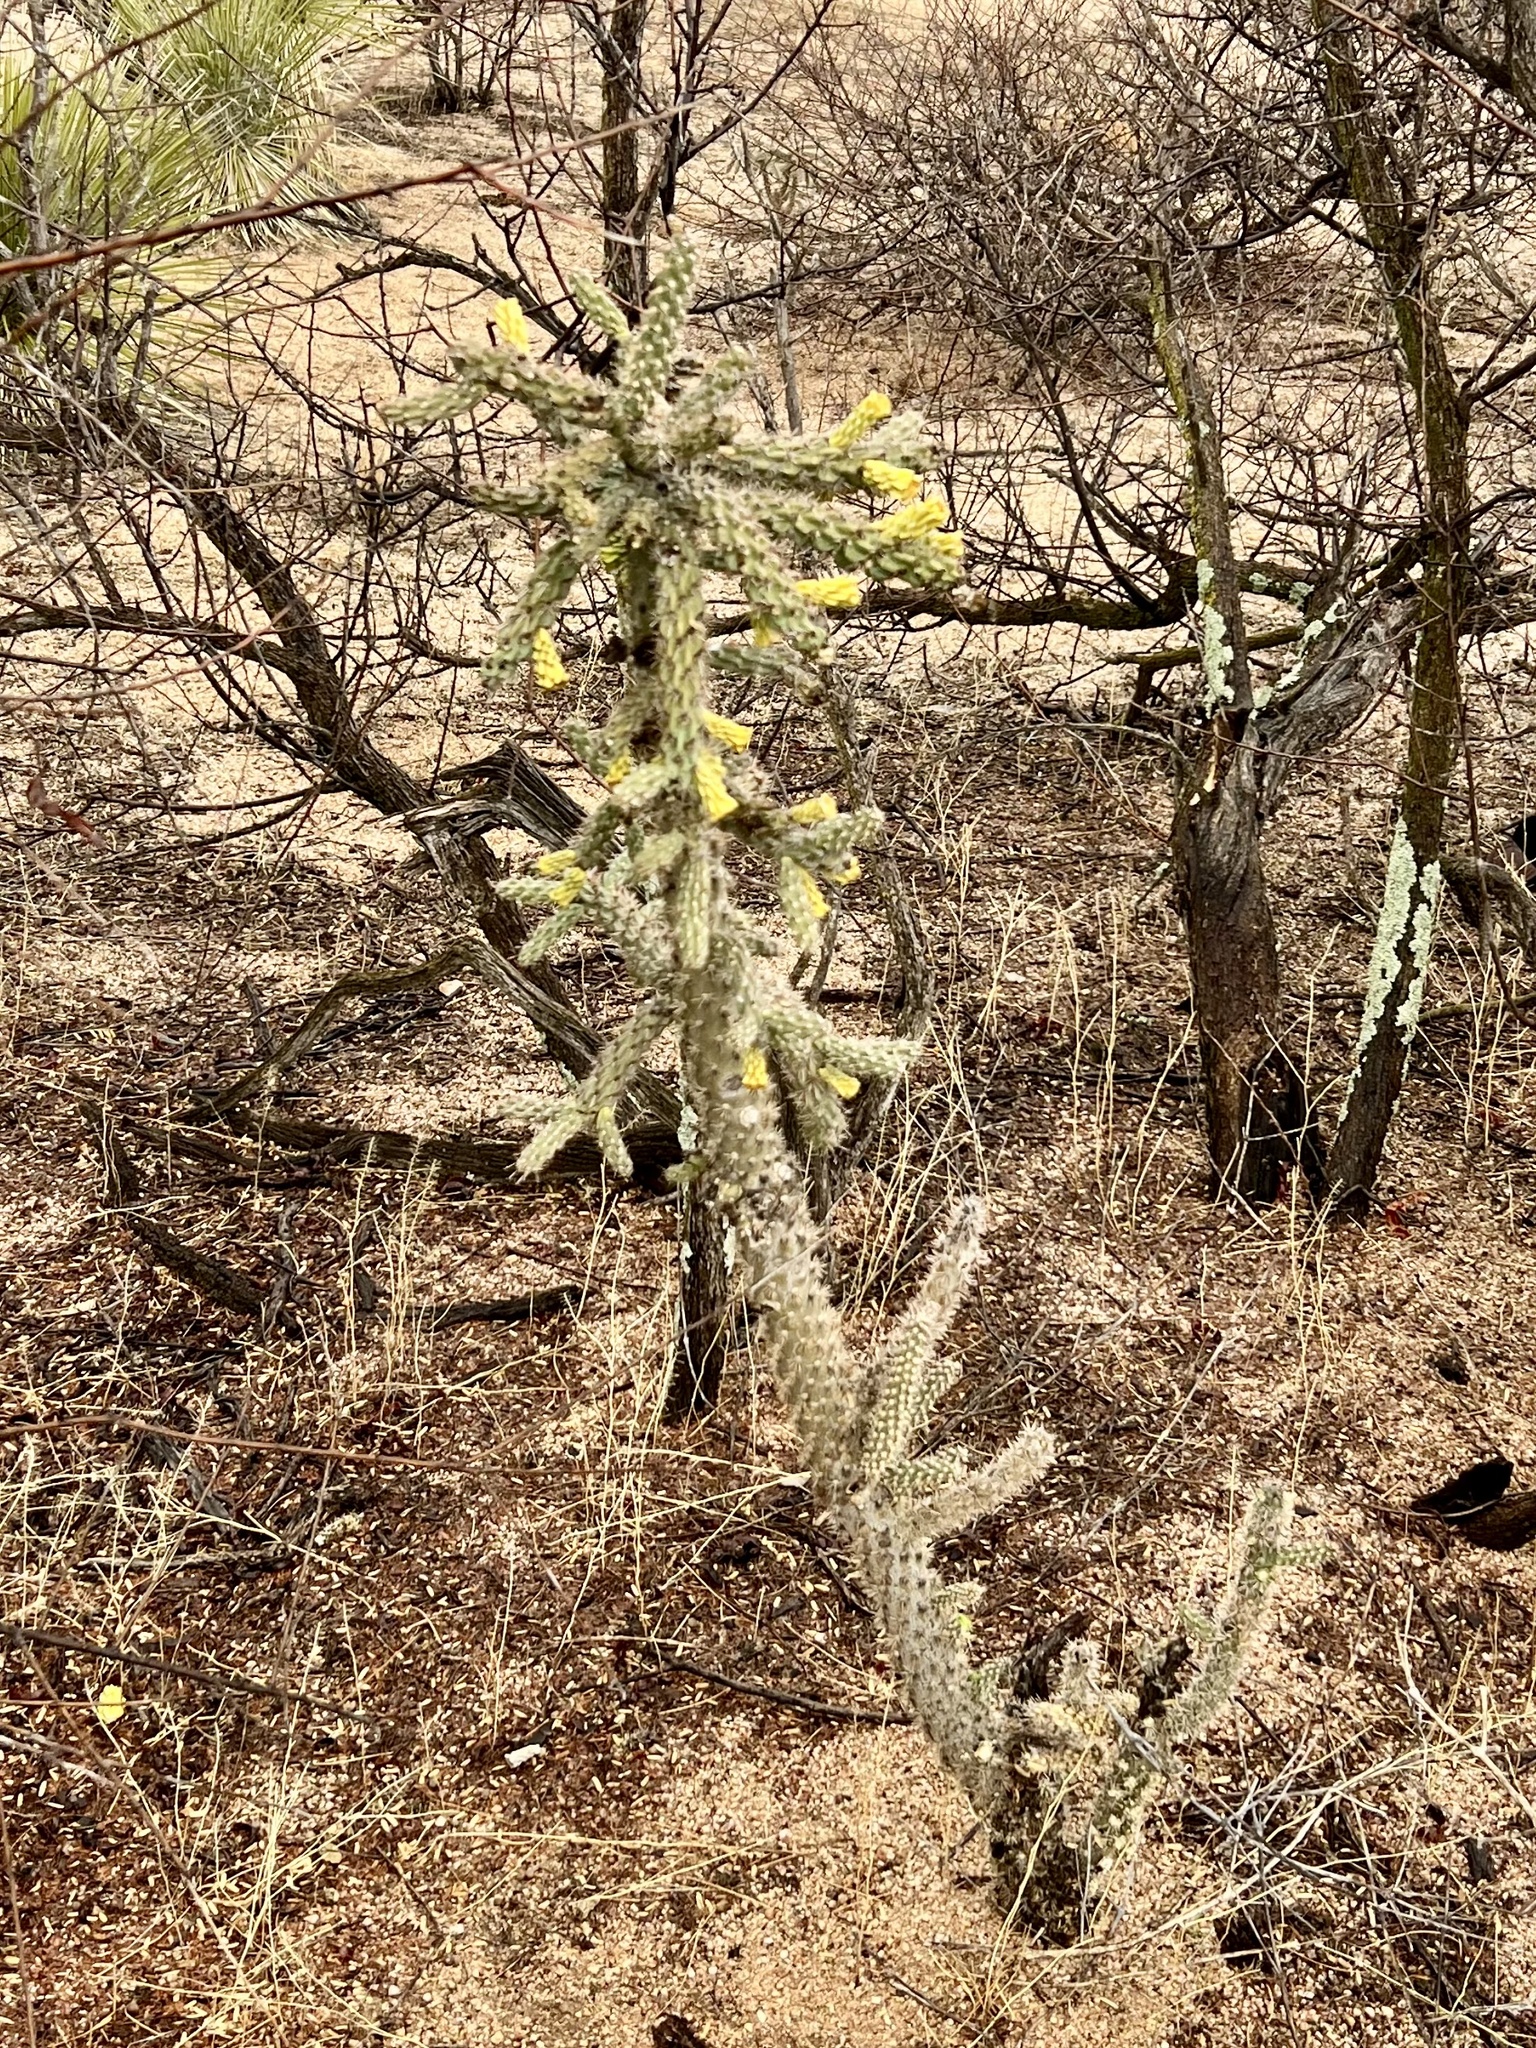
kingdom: Plantae
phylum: Tracheophyta
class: Magnoliopsida
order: Caryophyllales
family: Cactaceae
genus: Cylindropuntia
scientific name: Cylindropuntia imbricata
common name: Candelabrum cactus
